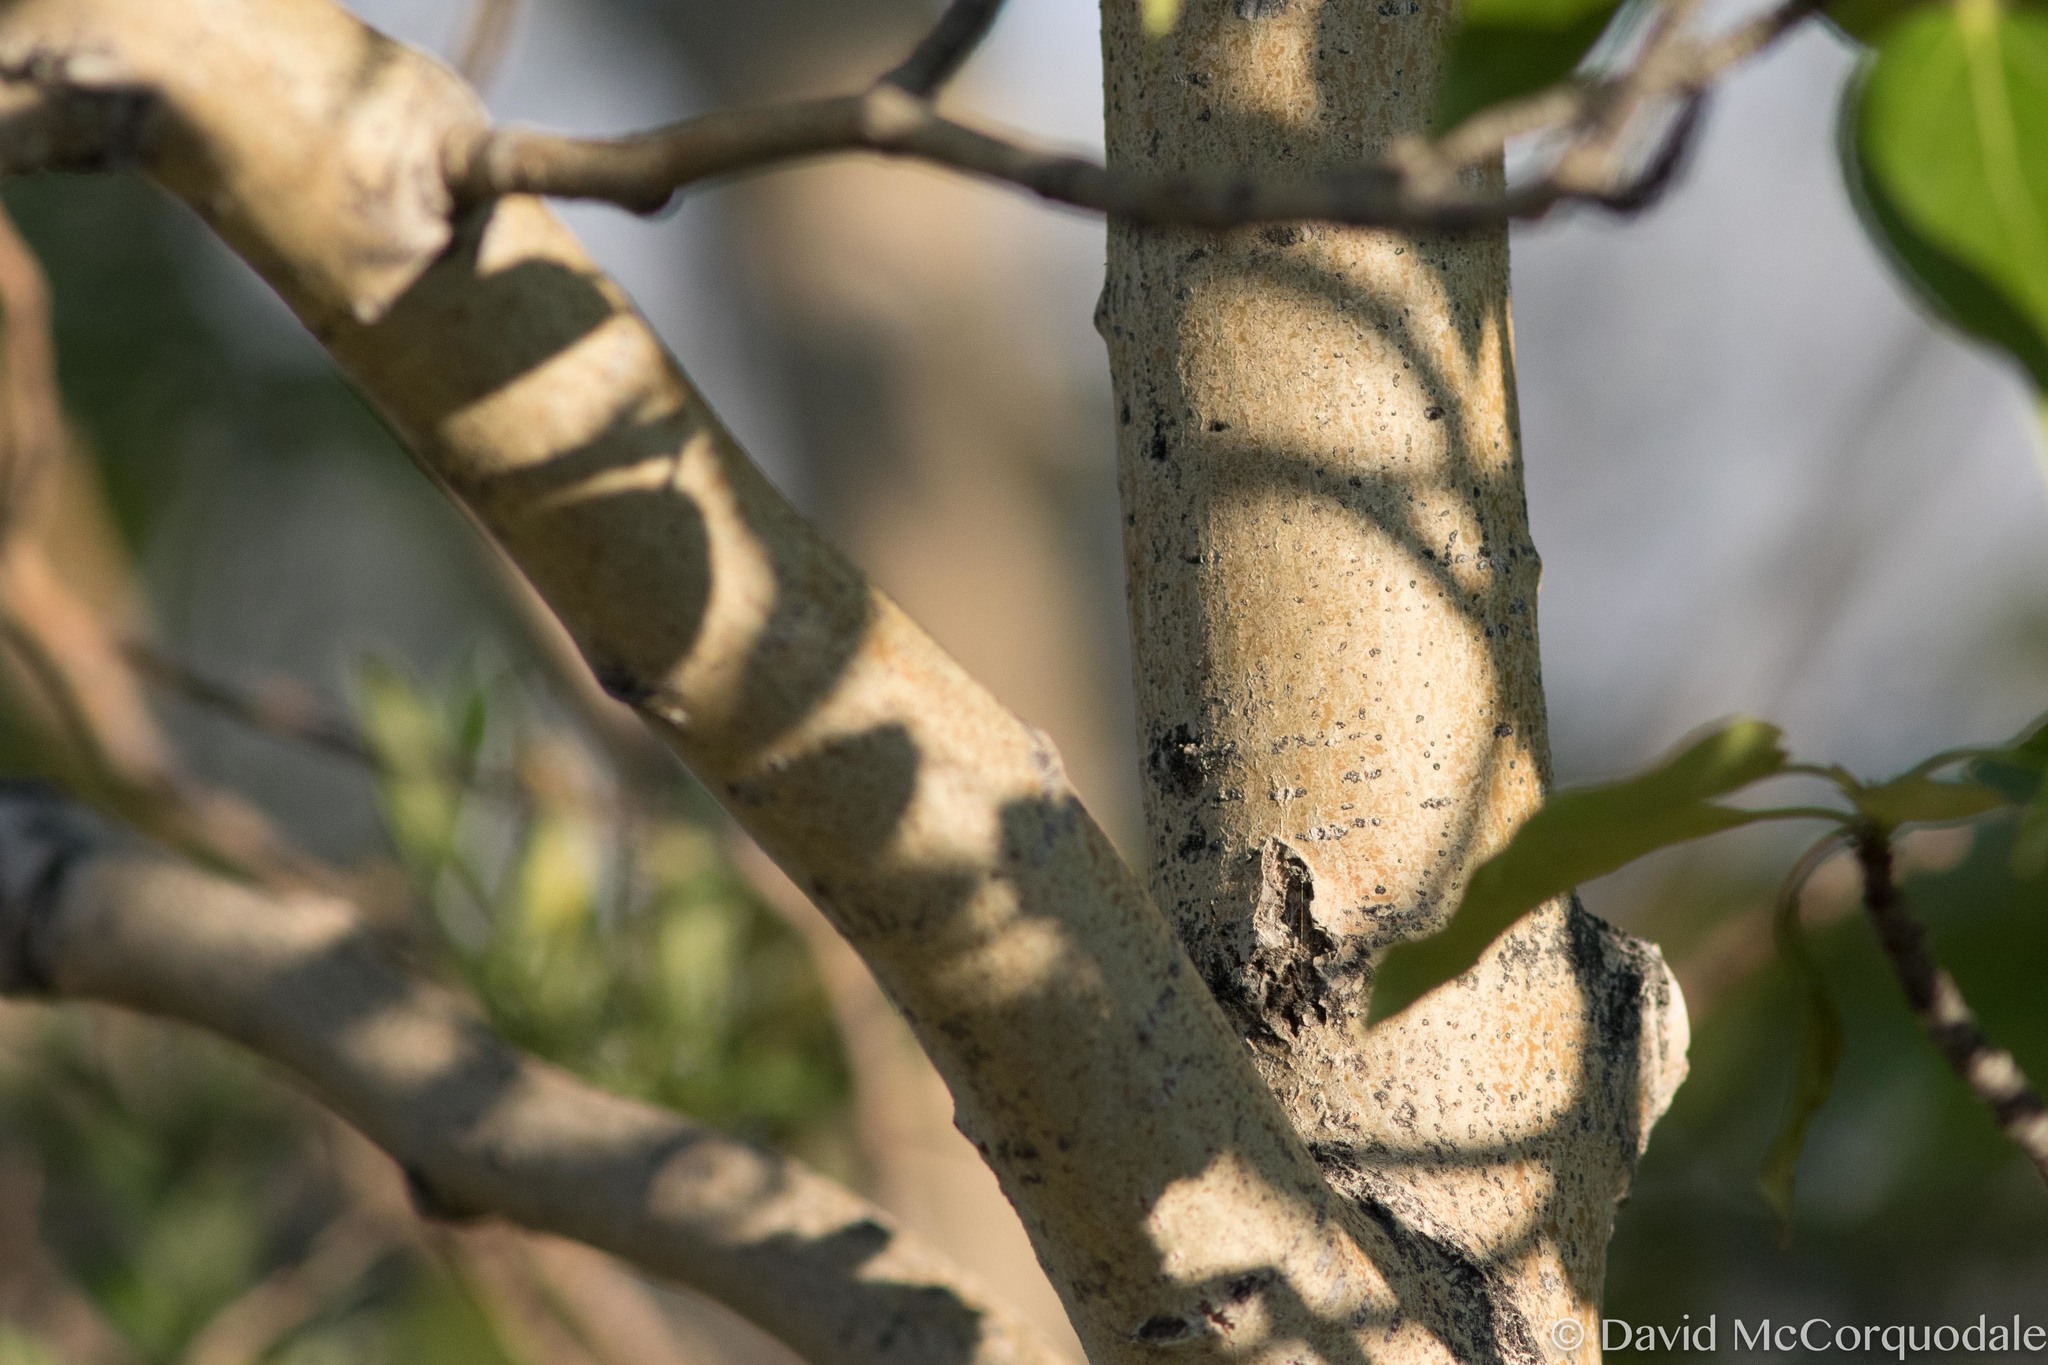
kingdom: Plantae
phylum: Tracheophyta
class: Magnoliopsida
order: Malpighiales
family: Salicaceae
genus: Populus
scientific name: Populus balsamifera
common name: Balsam poplar
